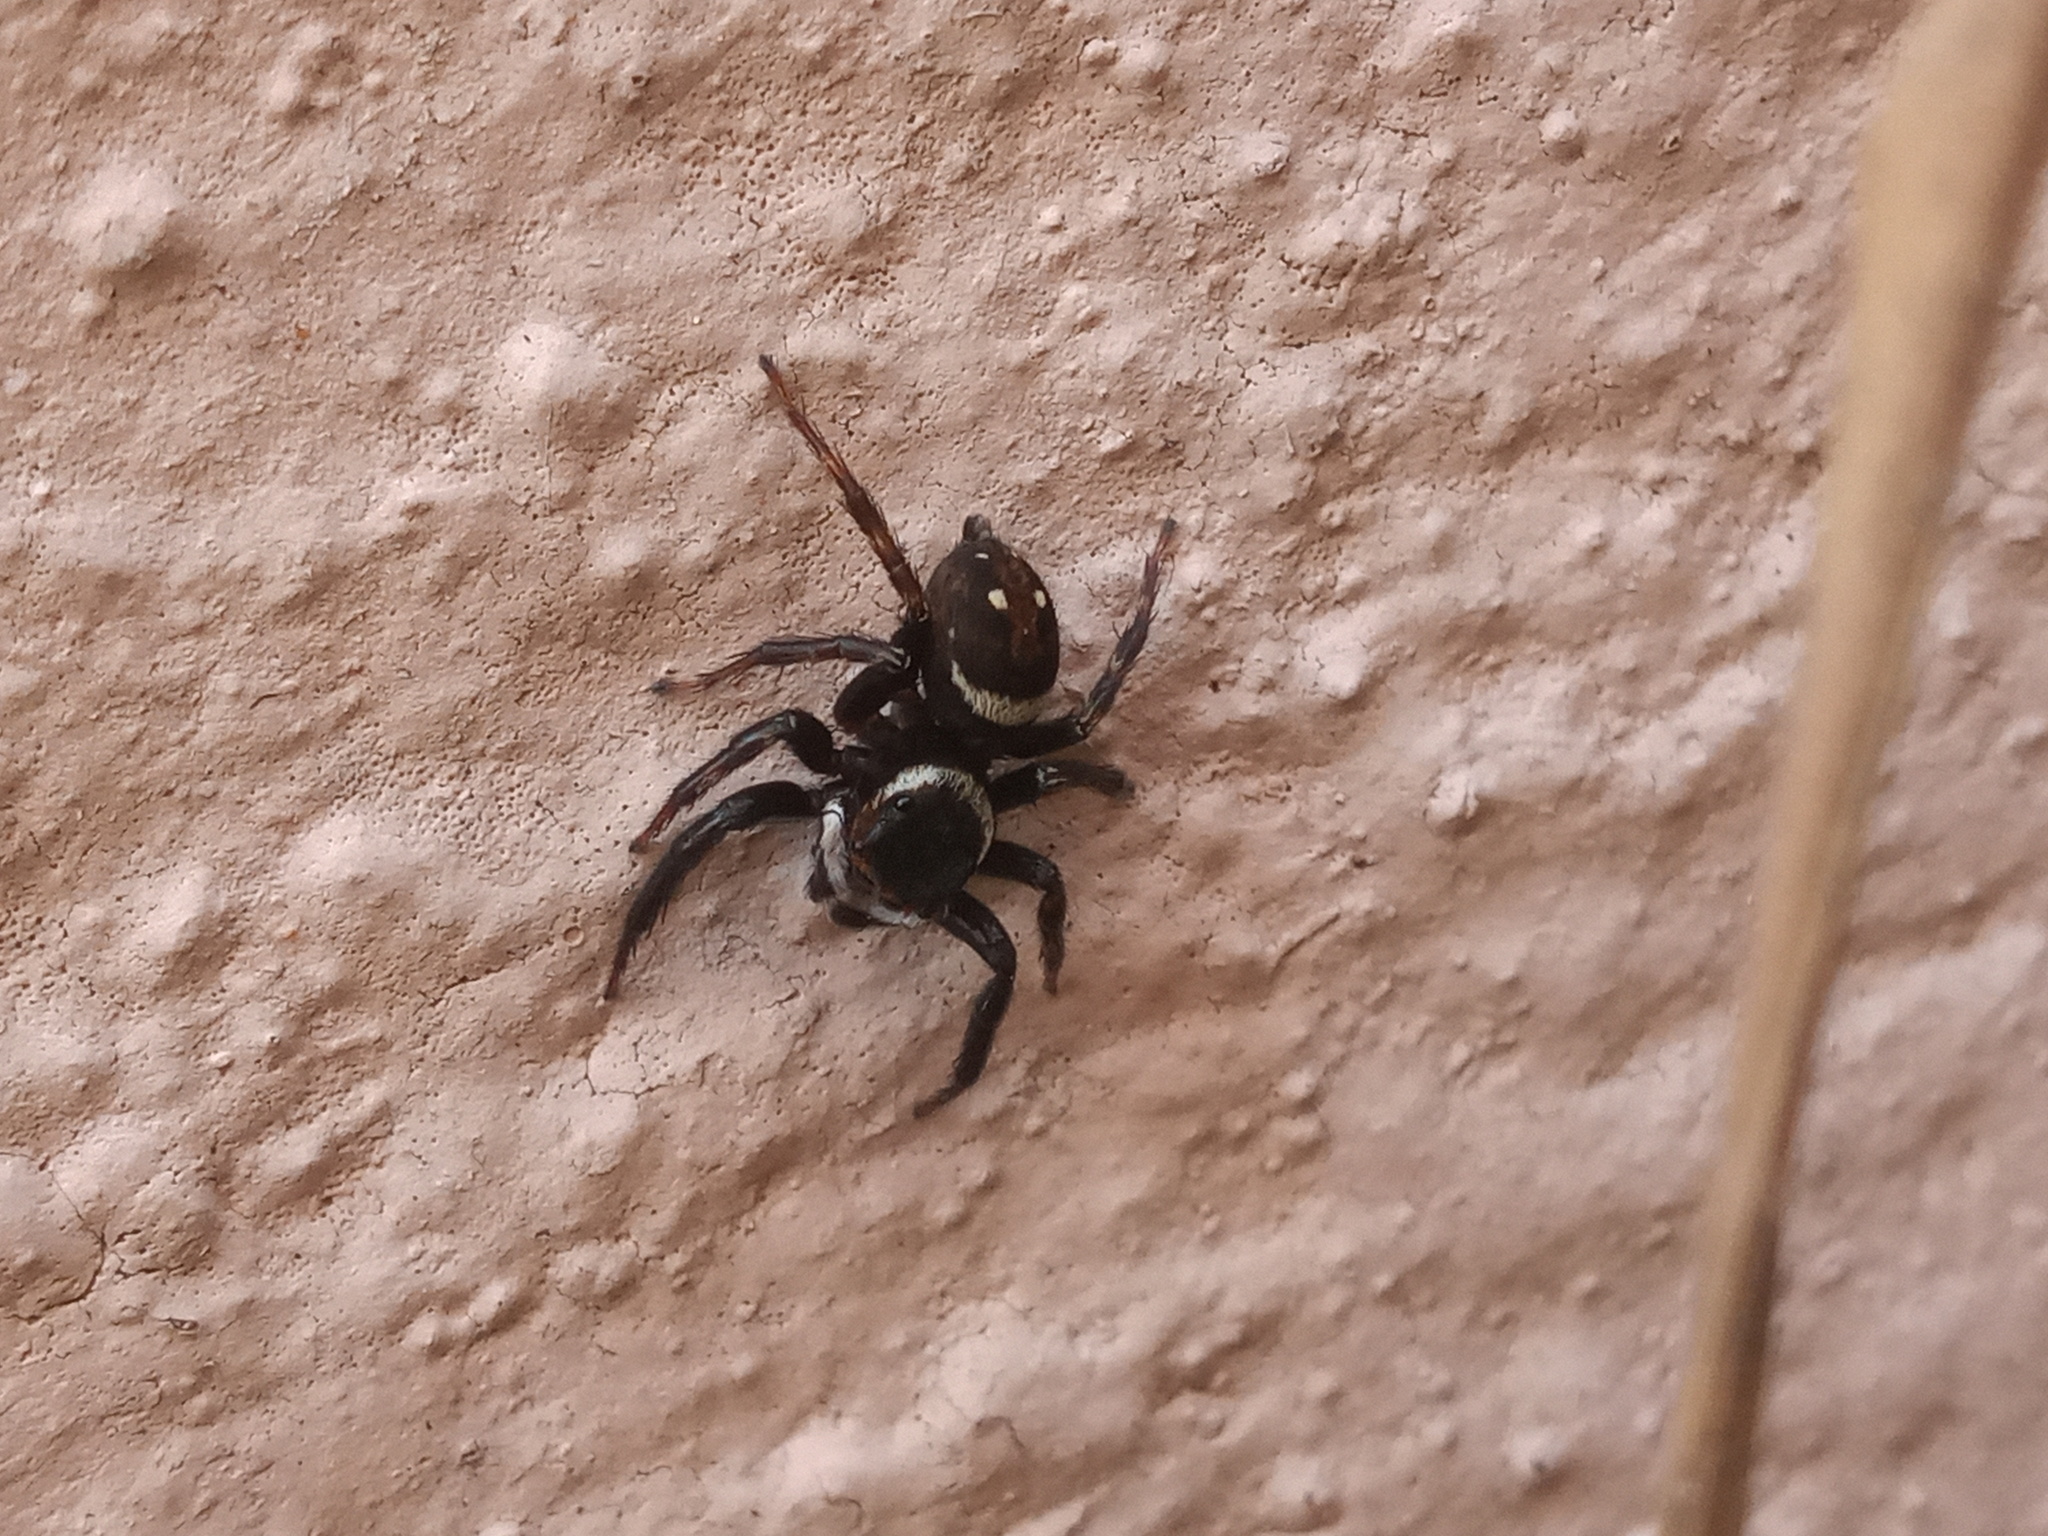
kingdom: Animalia
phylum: Arthropoda
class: Arachnida
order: Araneae
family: Salticidae
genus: Hasarius
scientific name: Hasarius adansoni
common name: Jumping spider
